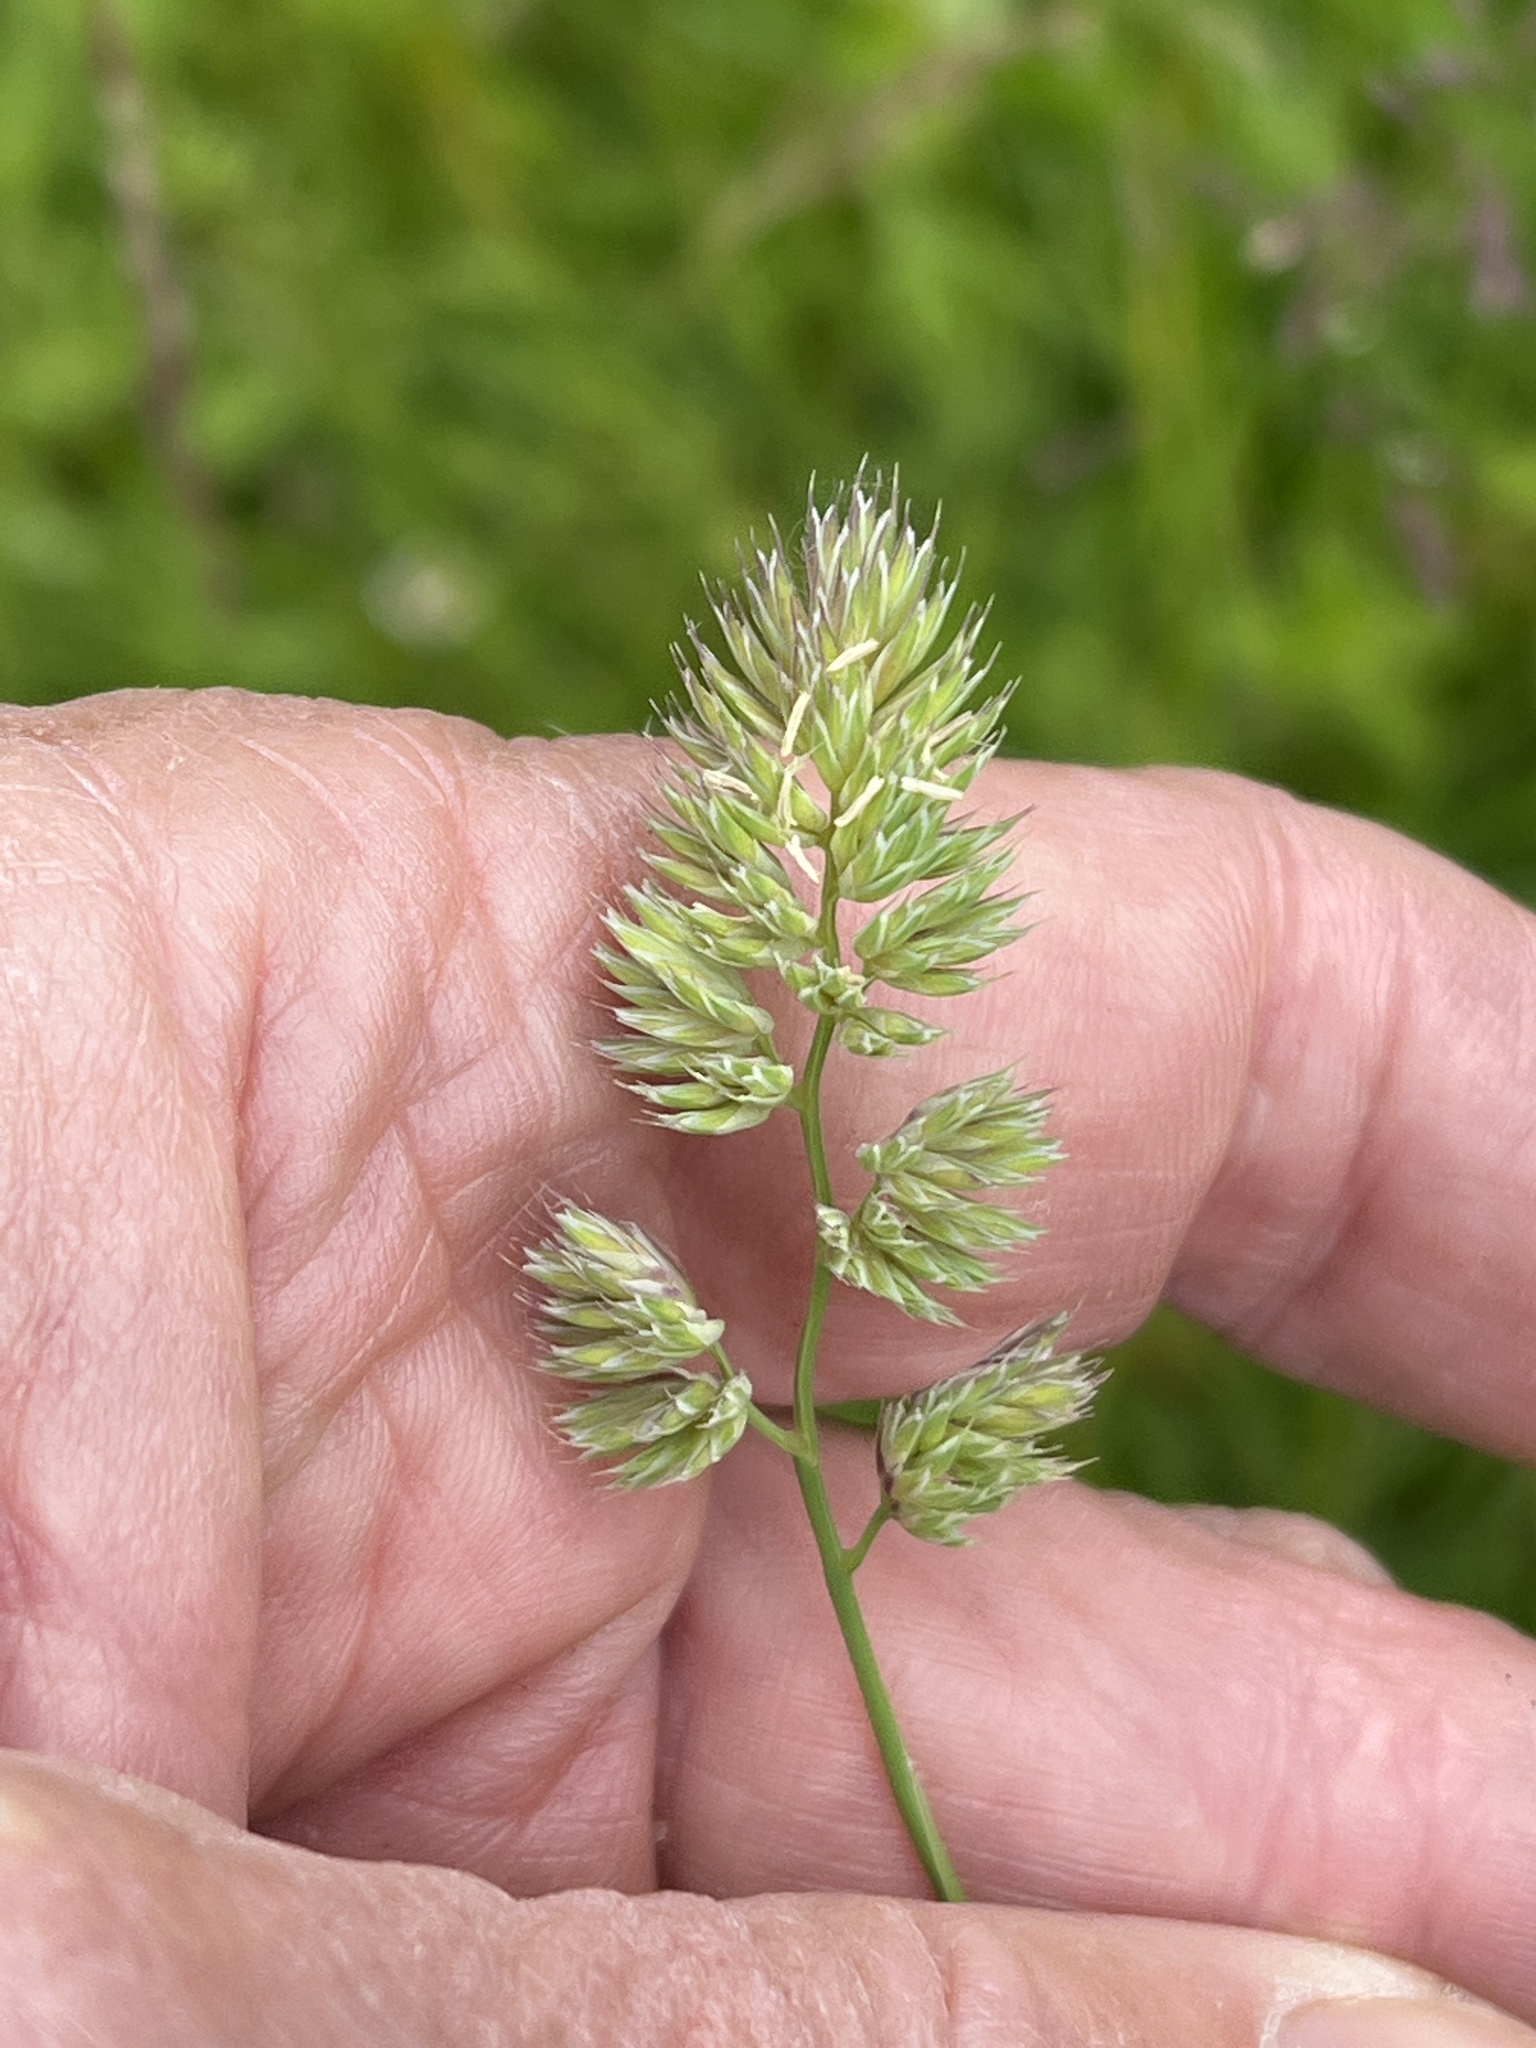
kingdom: Plantae
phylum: Tracheophyta
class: Liliopsida
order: Poales
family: Poaceae
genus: Dactylis
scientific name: Dactylis glomerata
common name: Orchardgrass
